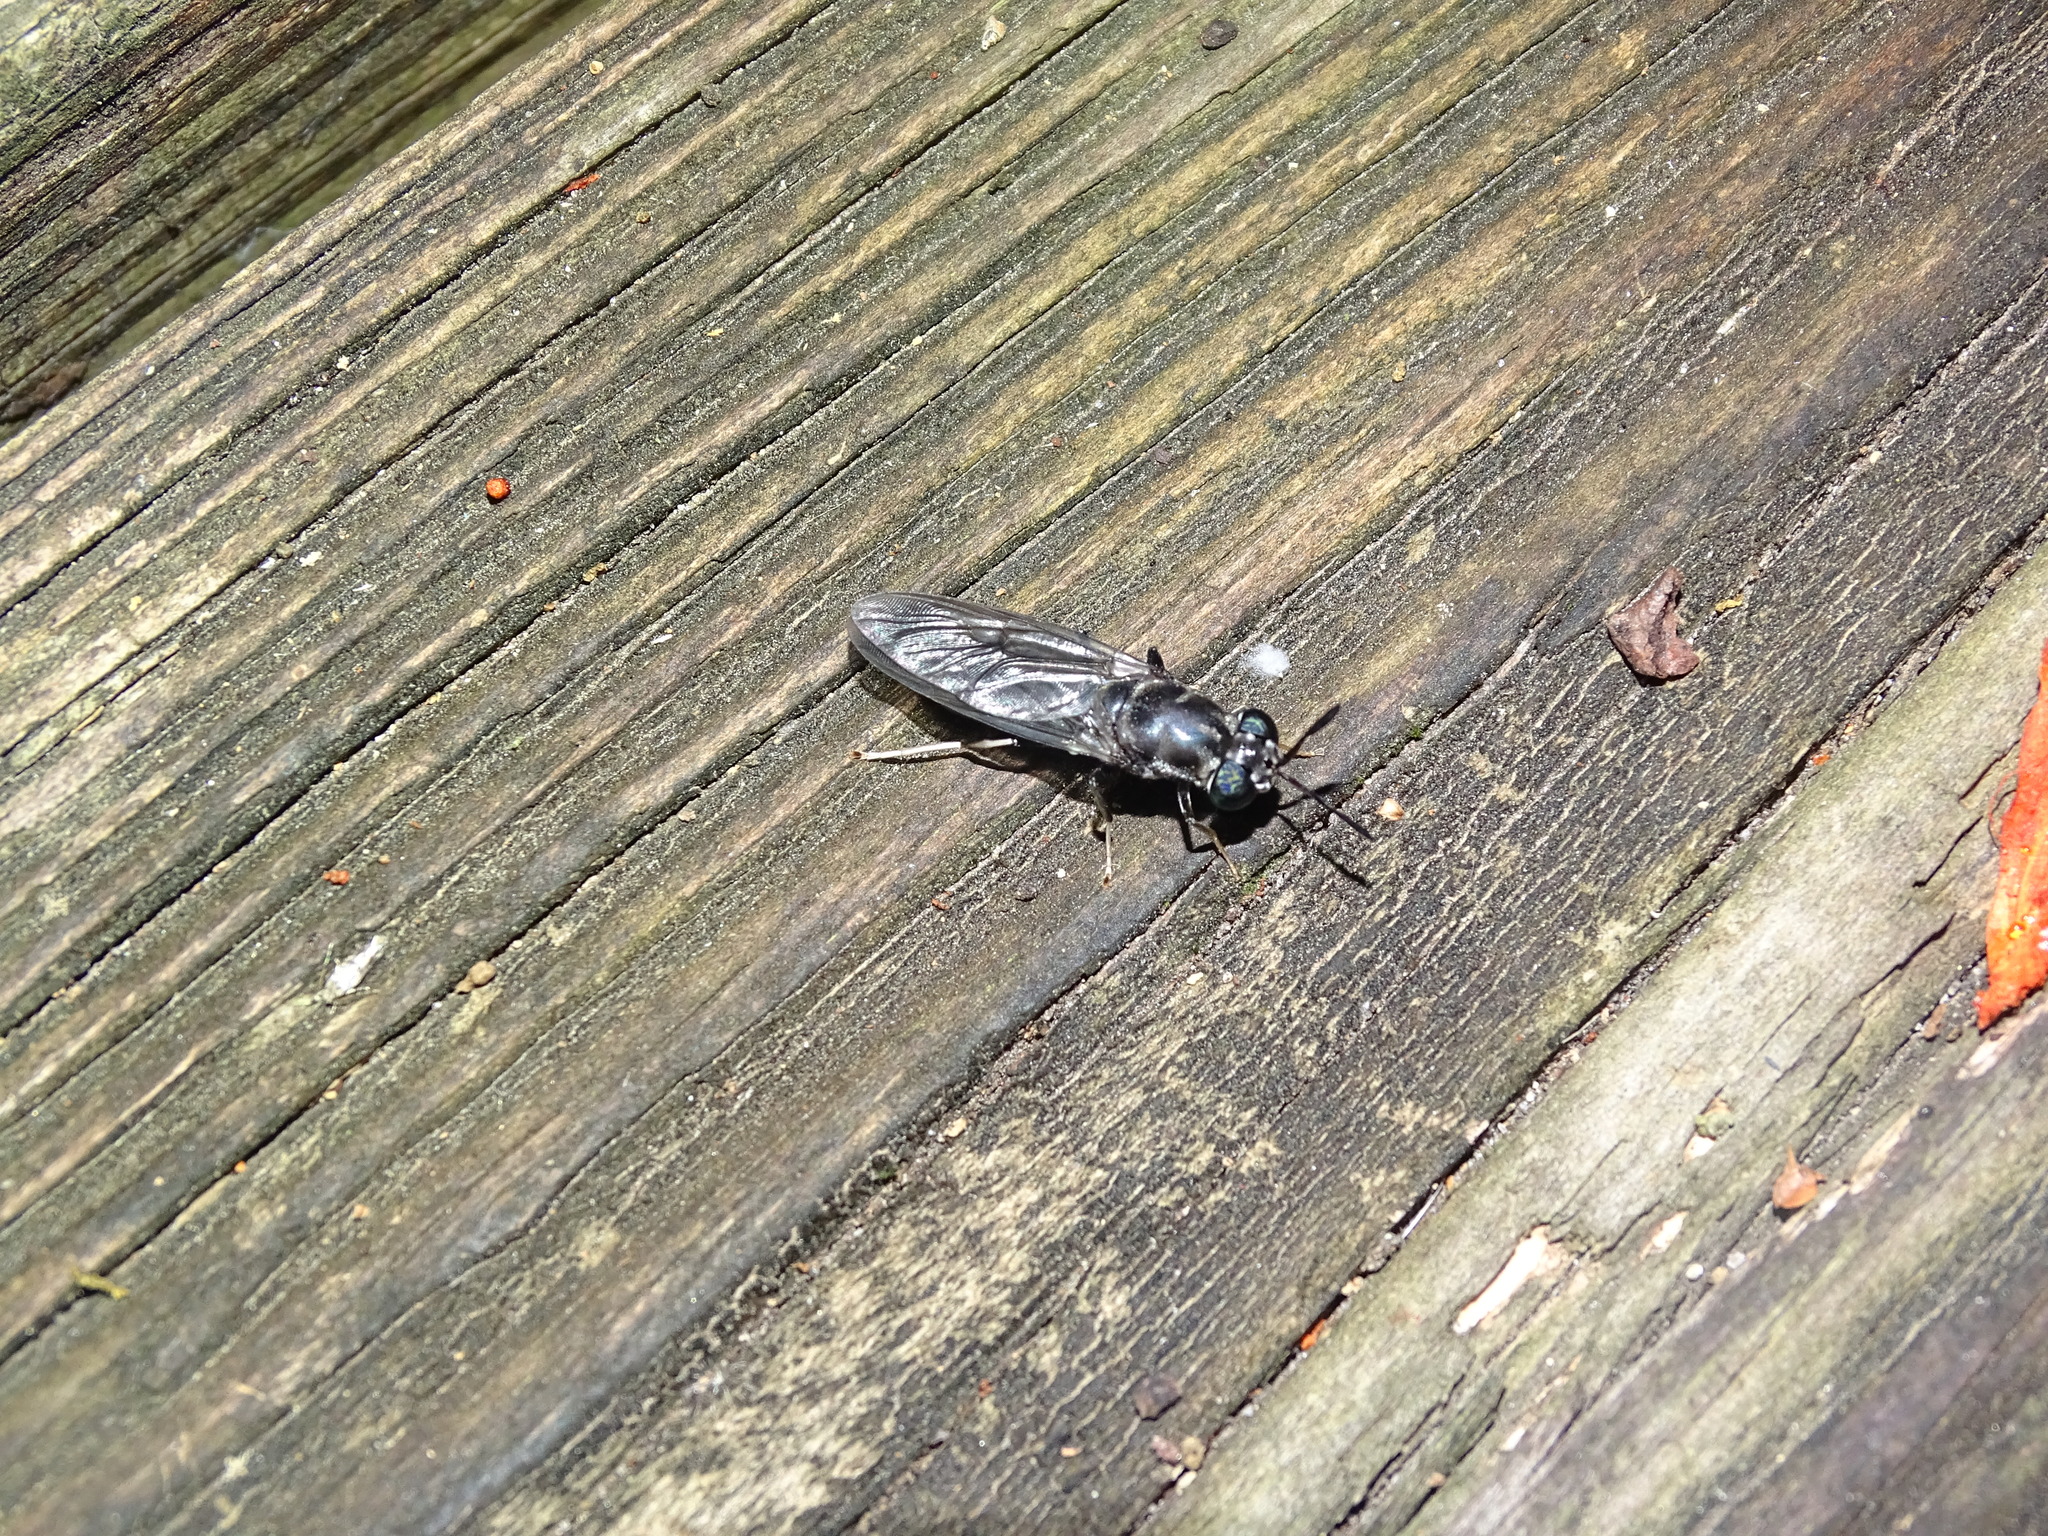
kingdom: Animalia
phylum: Arthropoda
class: Insecta
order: Diptera
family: Stratiomyidae
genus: Hermetia
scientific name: Hermetia illucens
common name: Black soldier fly
